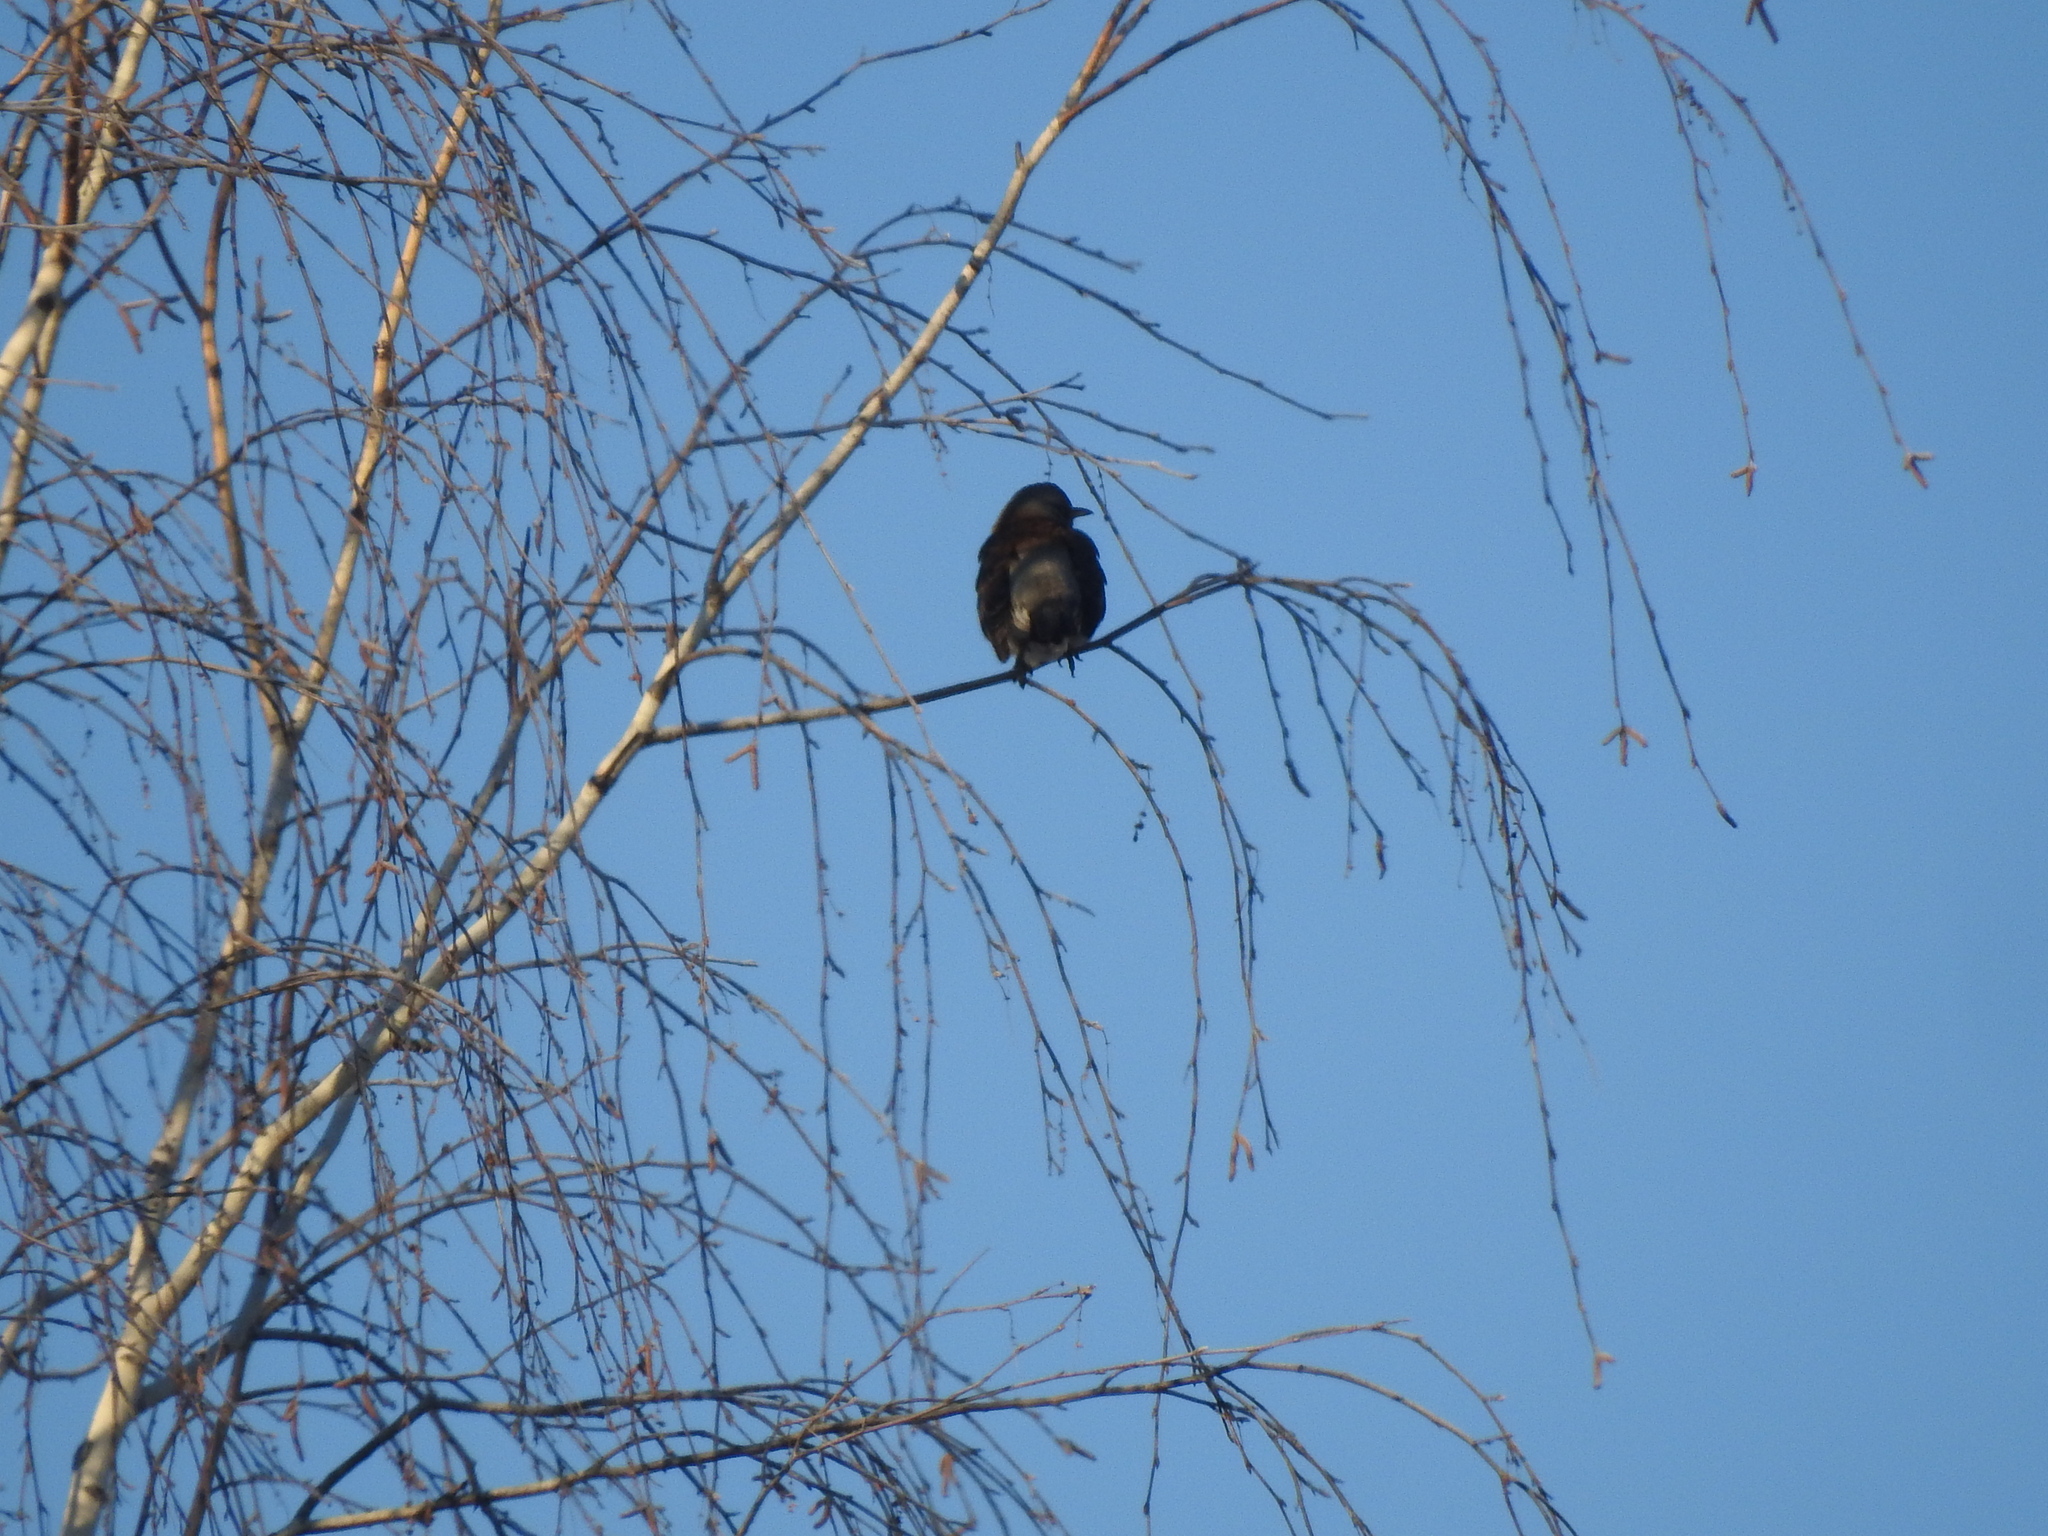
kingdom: Animalia
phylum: Chordata
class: Aves
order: Passeriformes
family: Turdidae
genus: Turdus
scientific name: Turdus pilaris
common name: Fieldfare
